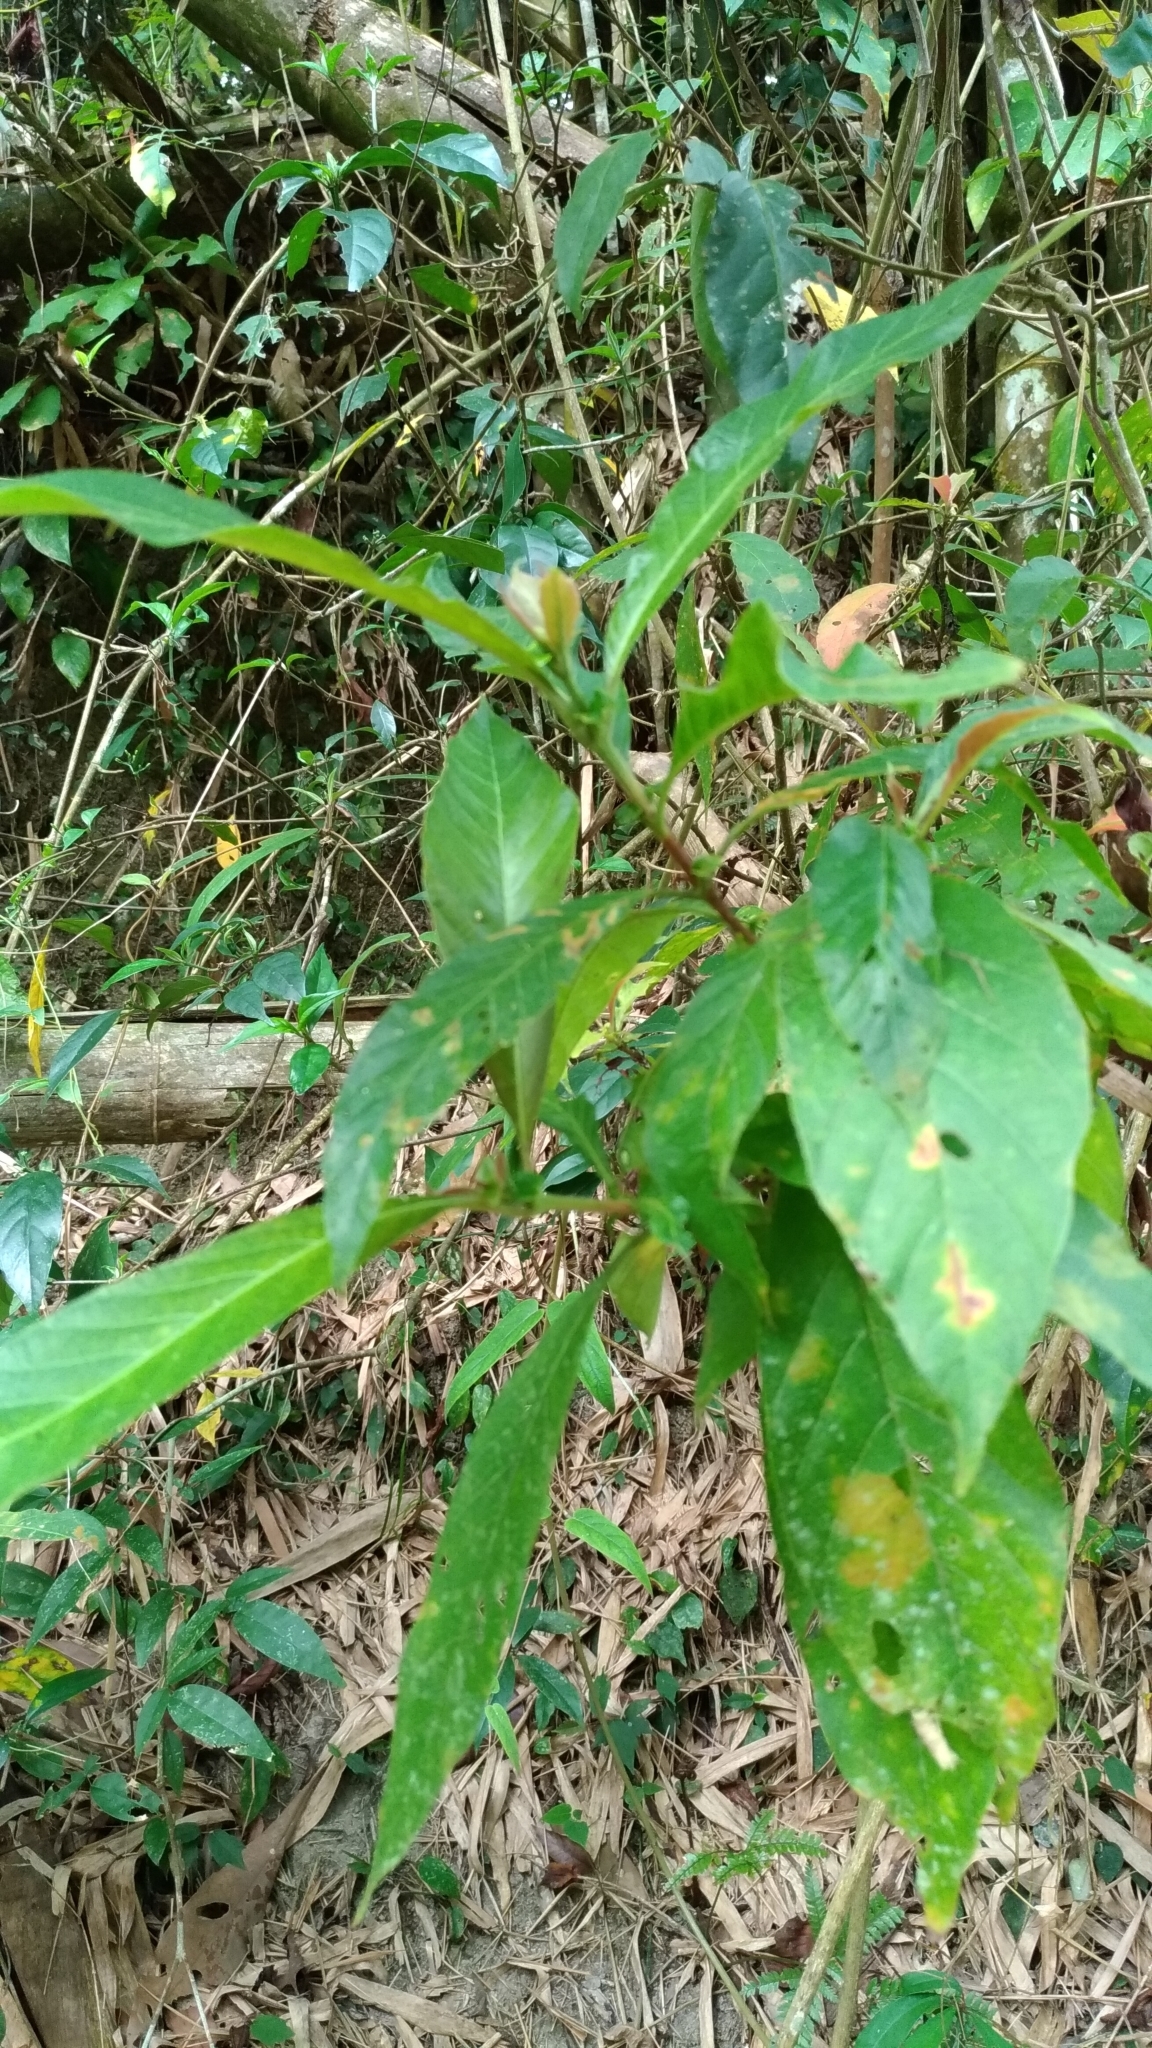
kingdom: Plantae
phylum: Tracheophyta
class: Magnoliopsida
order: Gentianales
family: Rubiaceae
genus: Wendlandia
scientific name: Wendlandia uvariifolia
